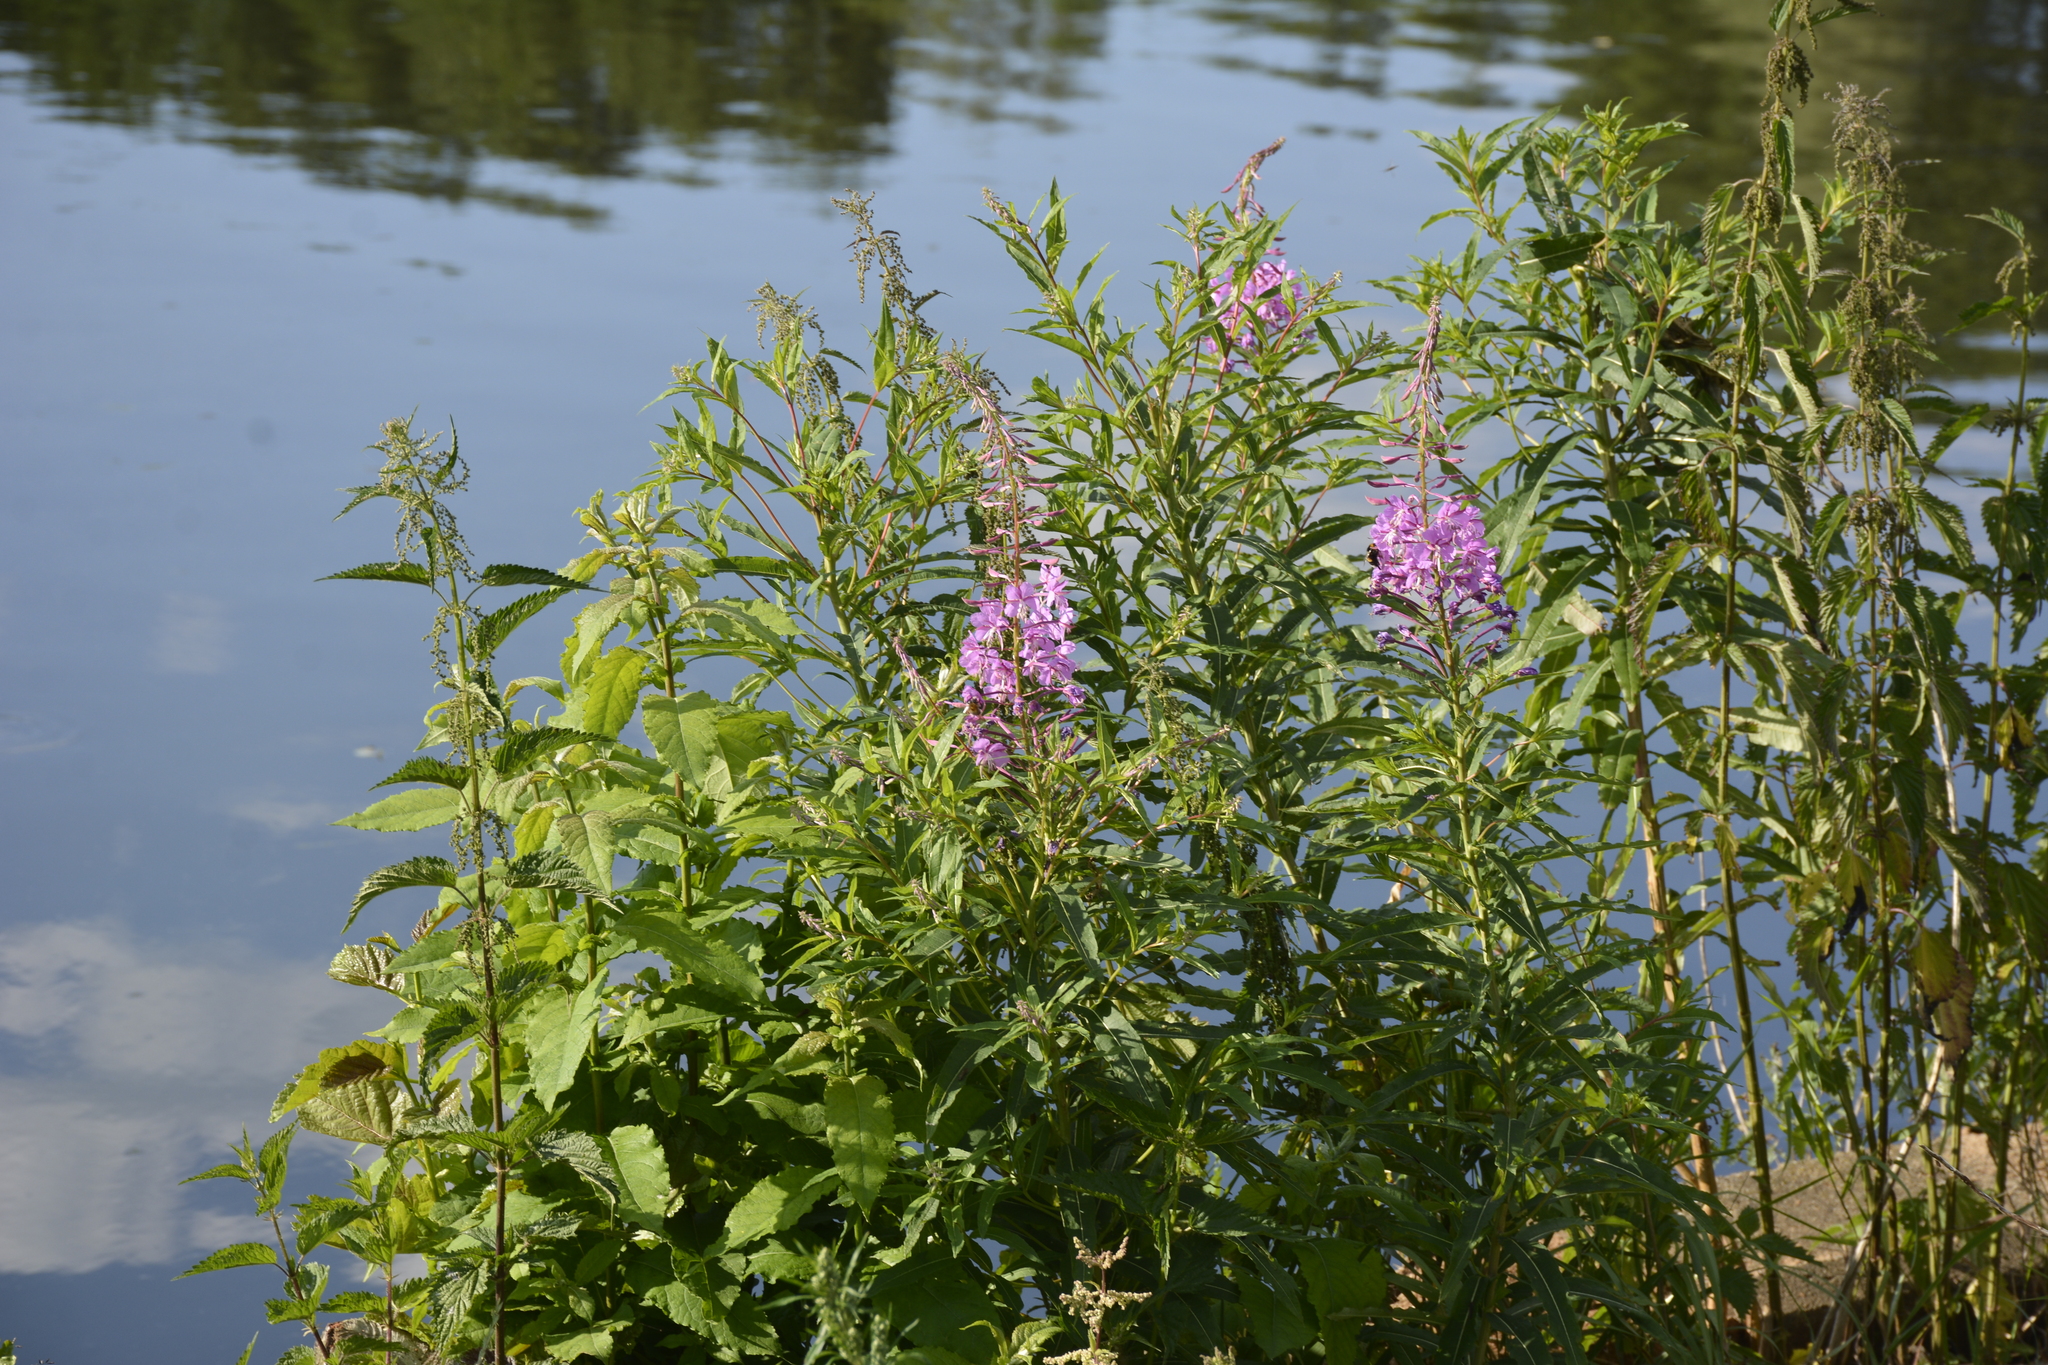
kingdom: Plantae
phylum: Tracheophyta
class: Magnoliopsida
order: Myrtales
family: Onagraceae
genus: Chamaenerion
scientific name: Chamaenerion angustifolium
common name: Fireweed
